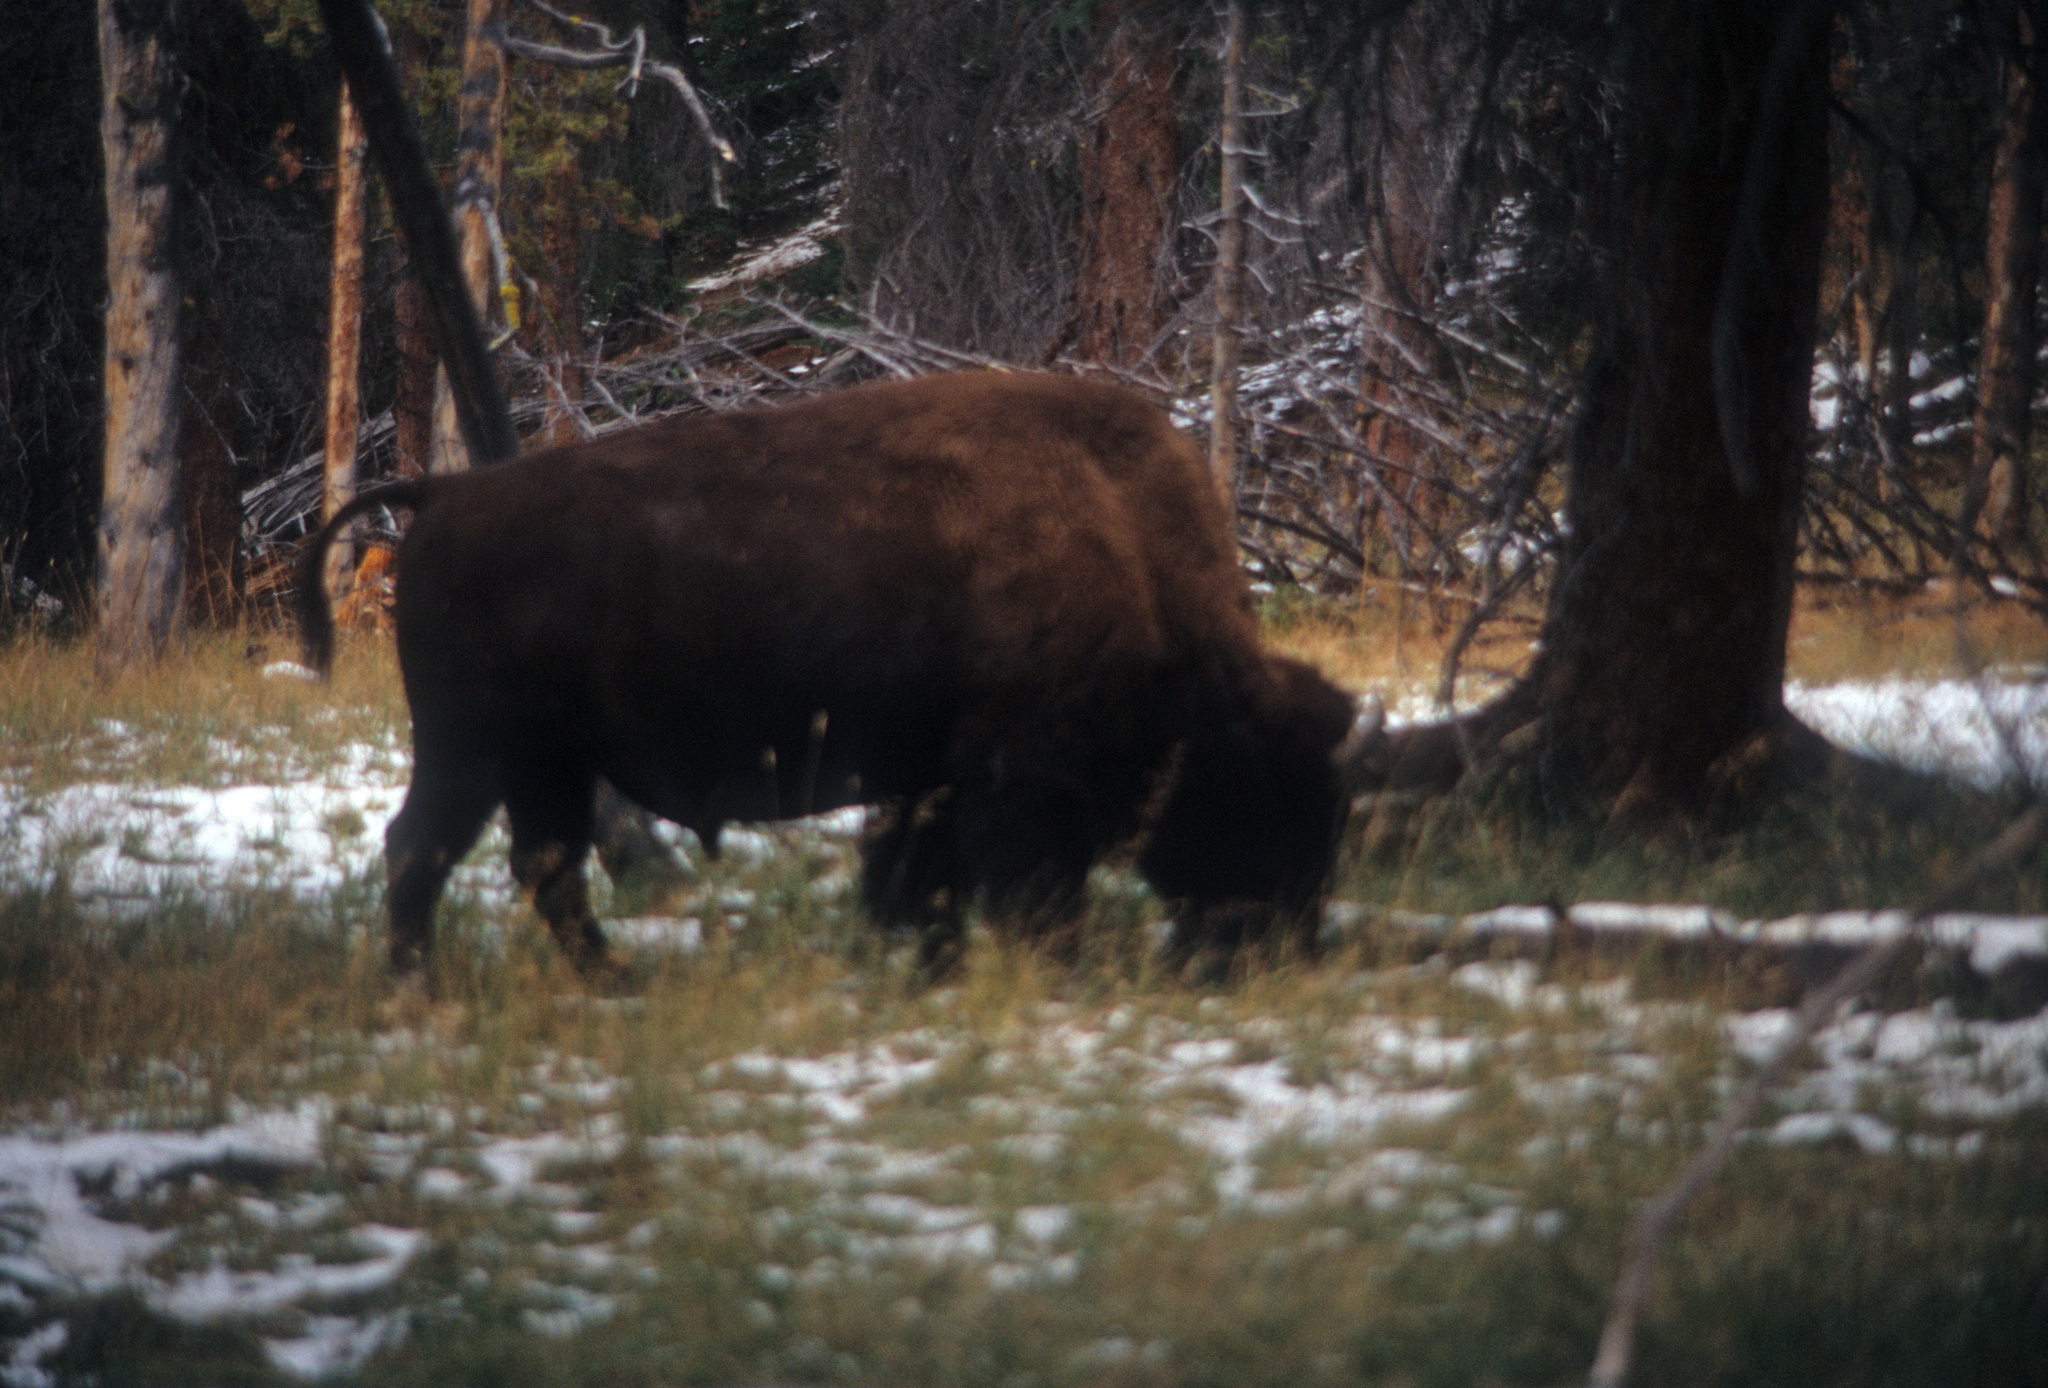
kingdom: Animalia
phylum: Chordata
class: Mammalia
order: Artiodactyla
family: Bovidae
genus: Bison
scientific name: Bison bison
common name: American bison
